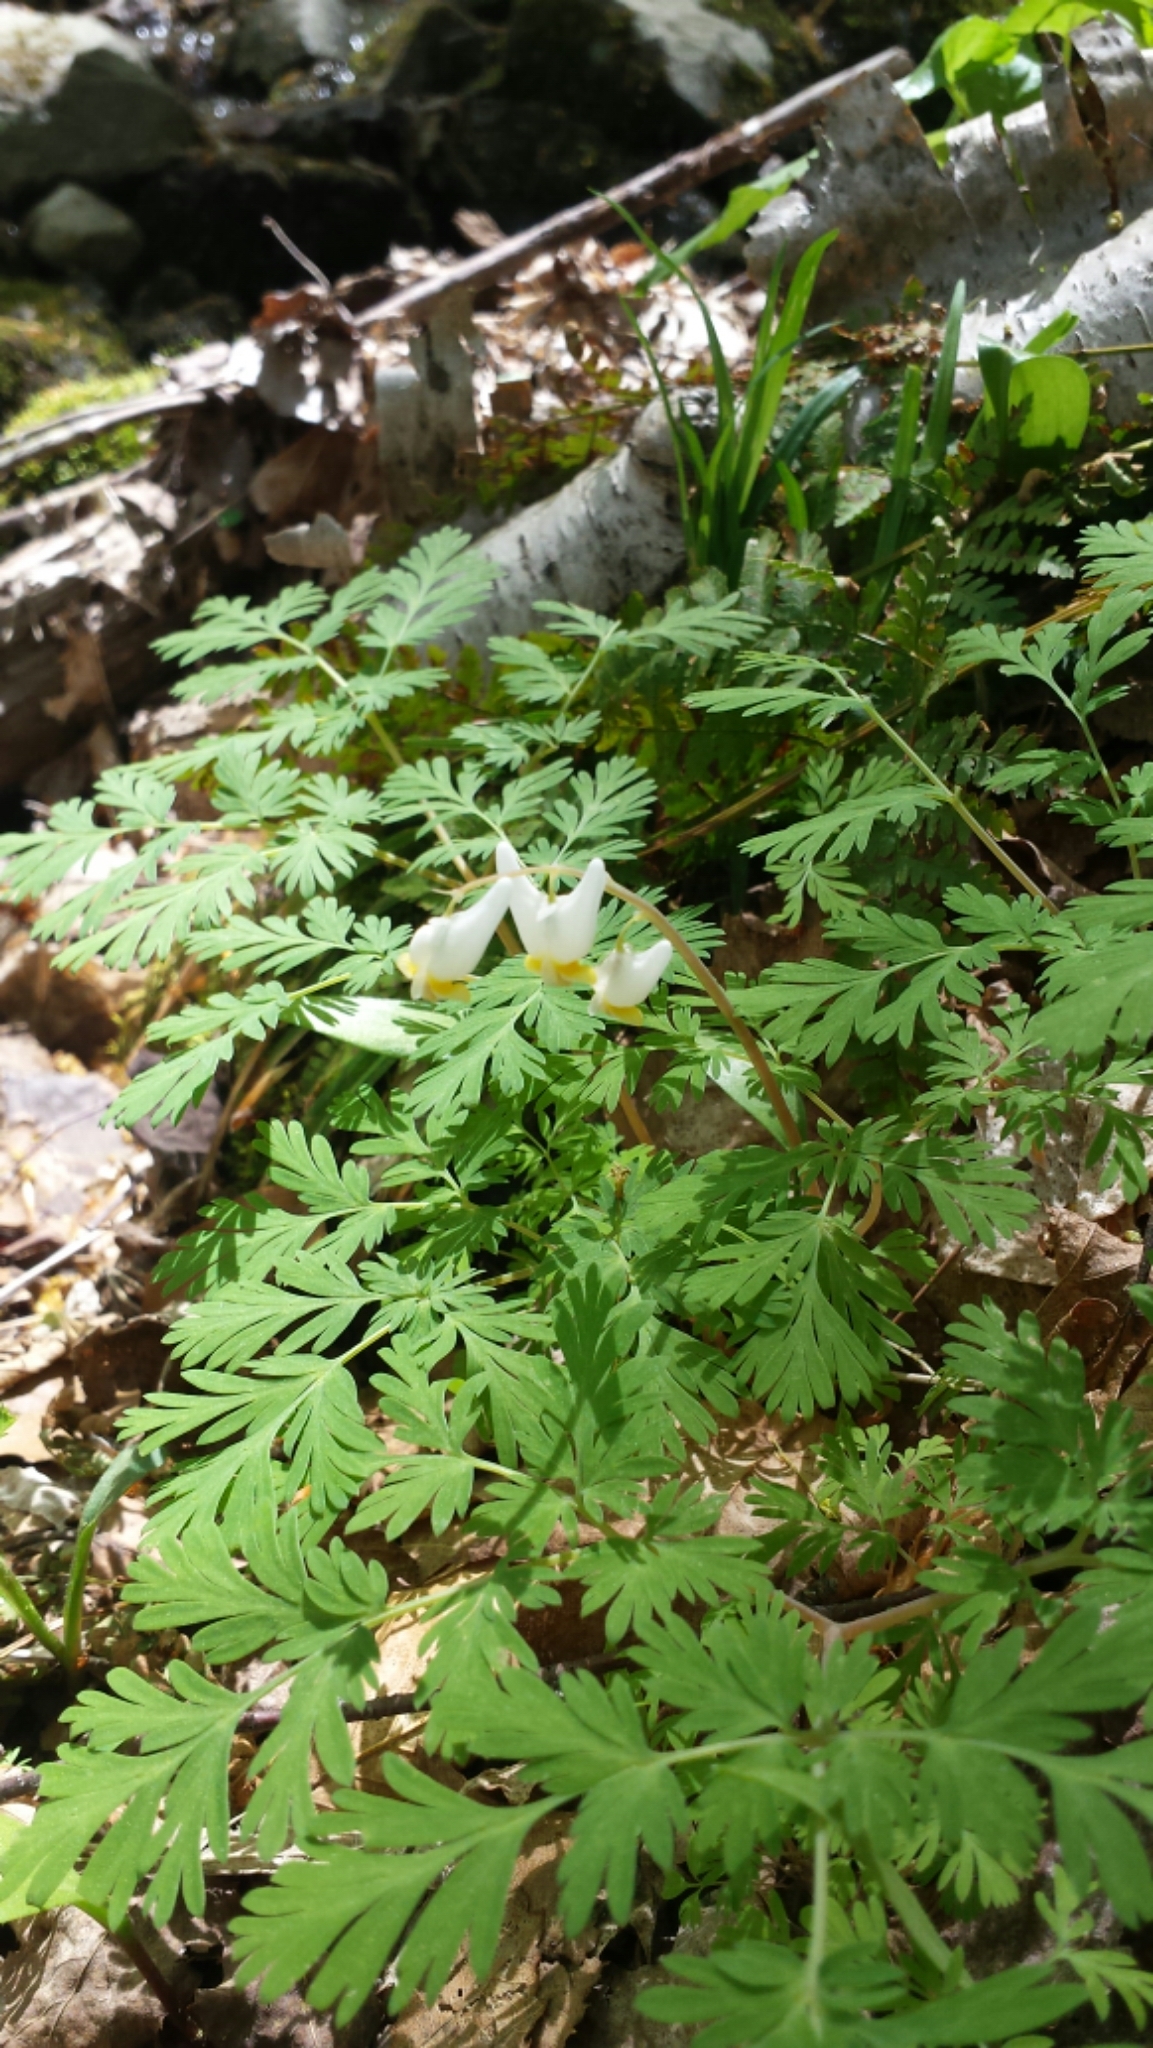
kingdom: Plantae
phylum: Tracheophyta
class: Magnoliopsida
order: Ranunculales
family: Papaveraceae
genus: Dicentra
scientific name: Dicentra cucullaria
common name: Dutchman's breeches
